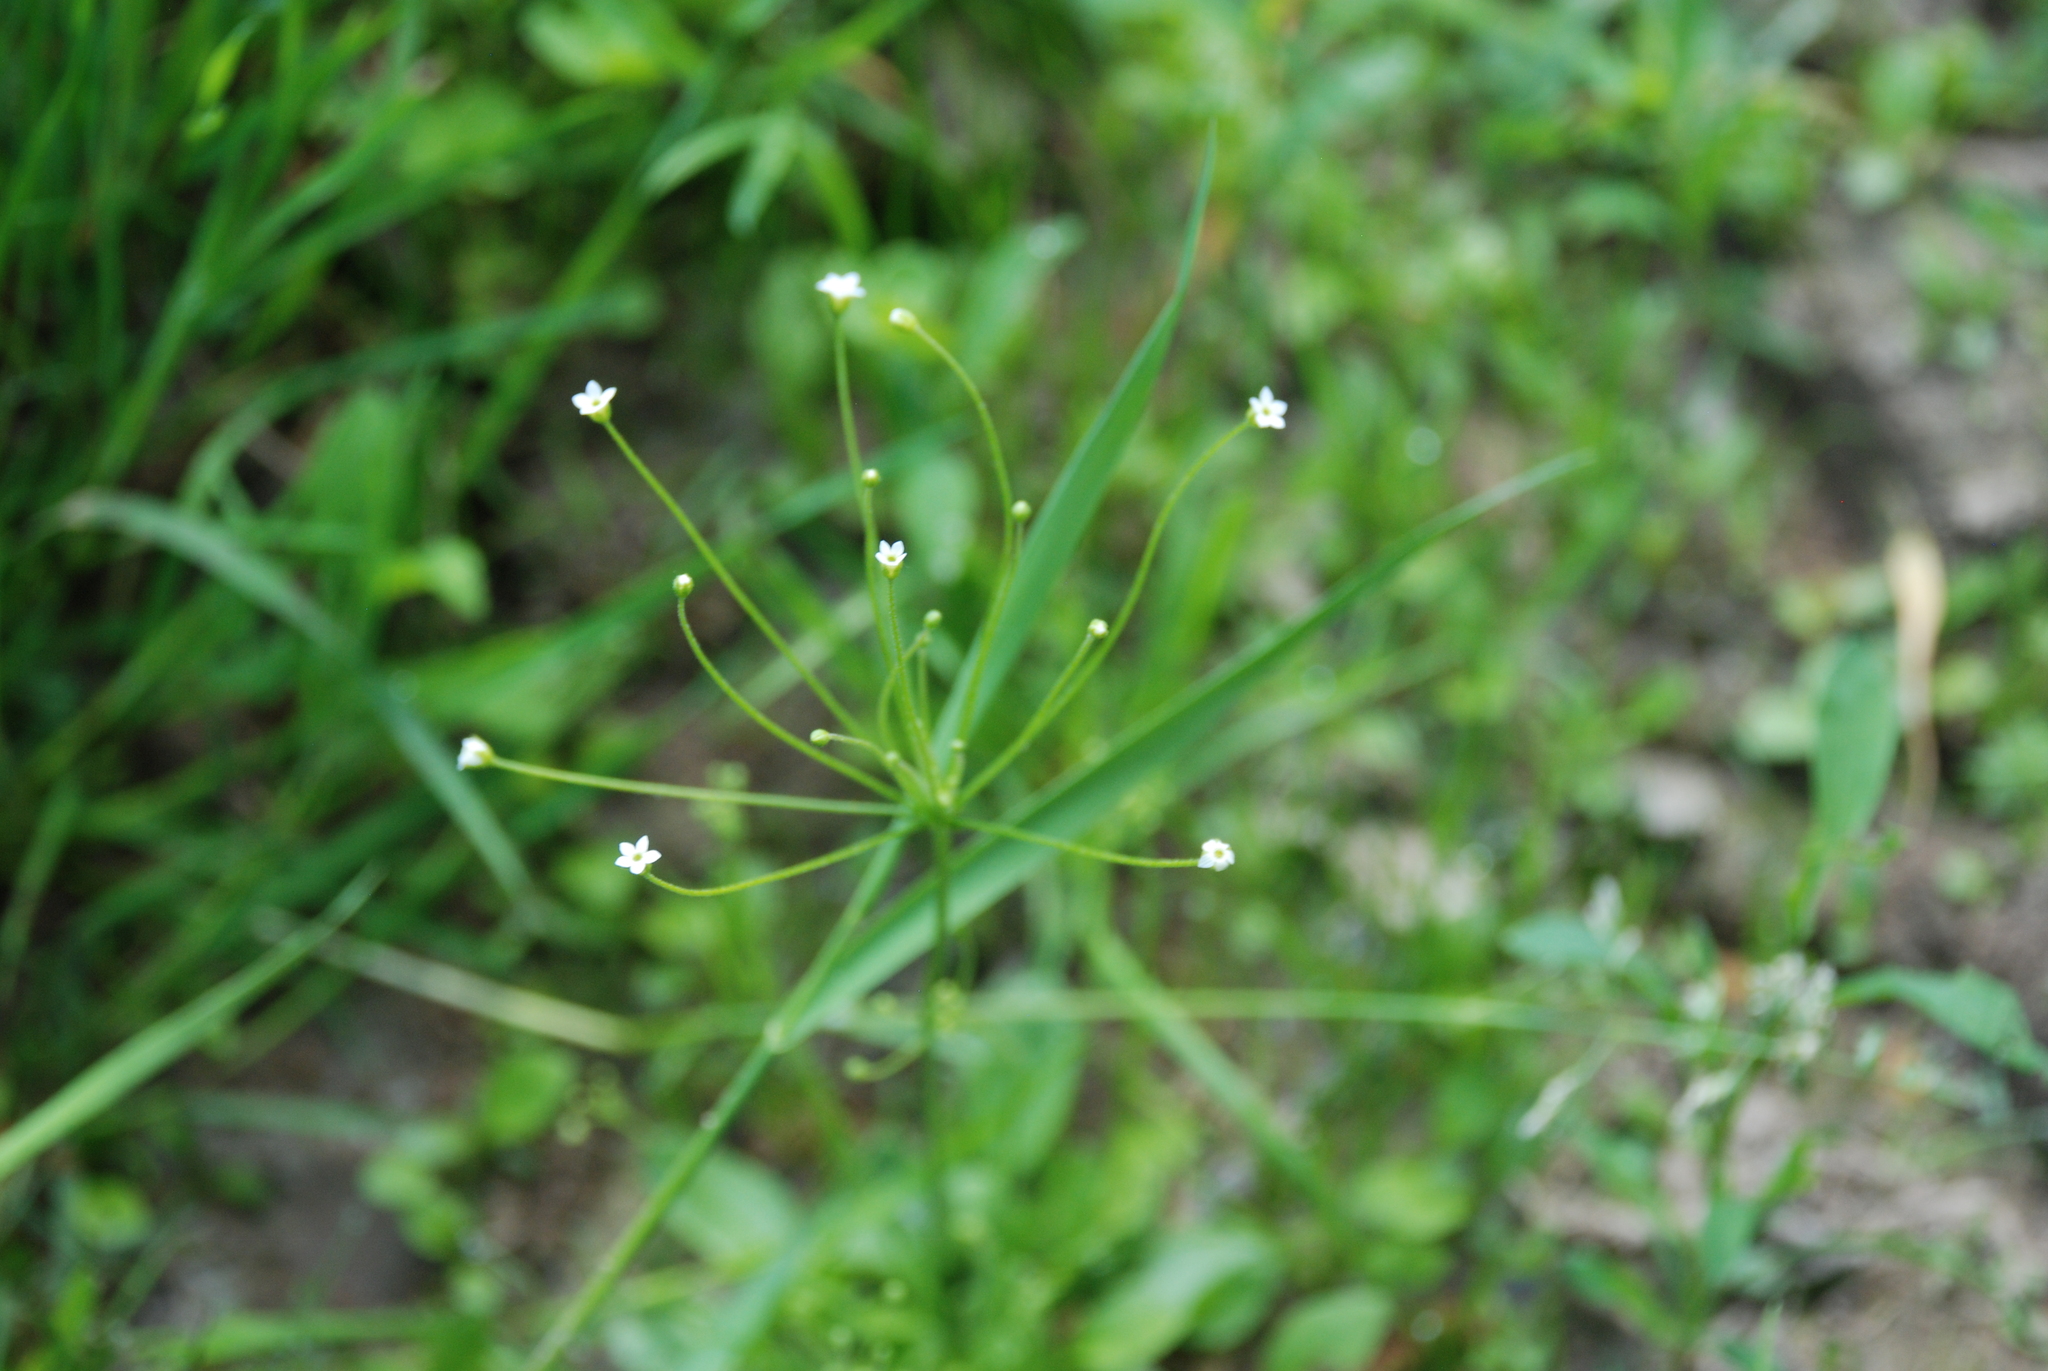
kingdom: Plantae
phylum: Tracheophyta
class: Magnoliopsida
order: Ericales
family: Primulaceae
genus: Androsace
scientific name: Androsace filiformis
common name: Filiform rock jasmine
